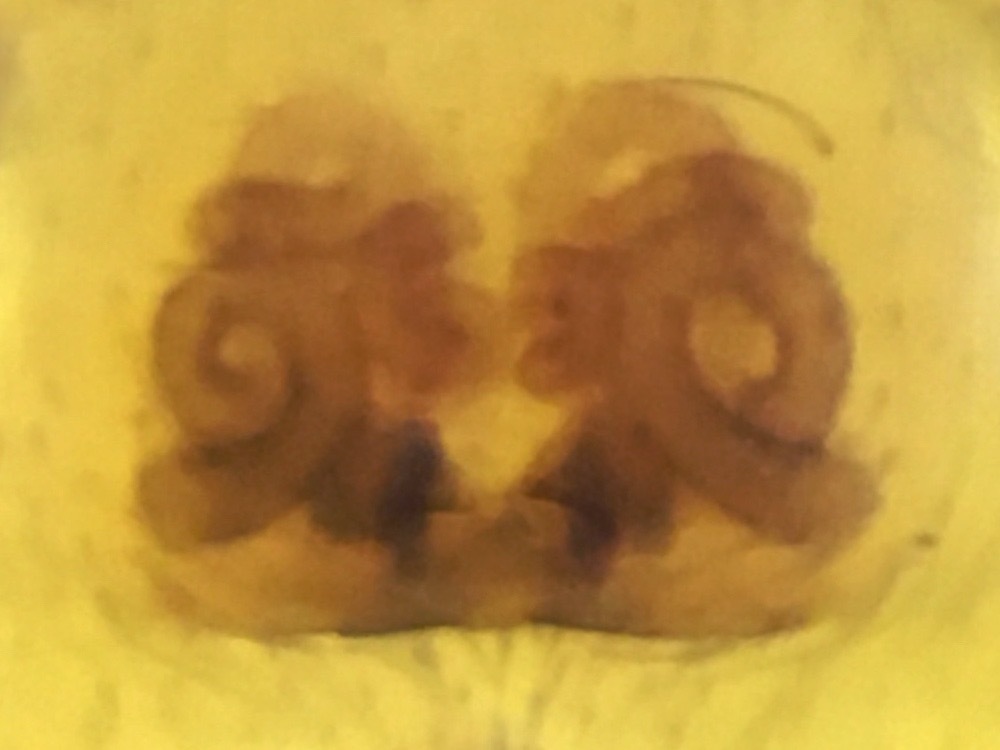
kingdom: Animalia
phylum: Arthropoda
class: Arachnida
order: Araneae
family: Salticidae
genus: Marpissa
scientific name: Marpissa grata
